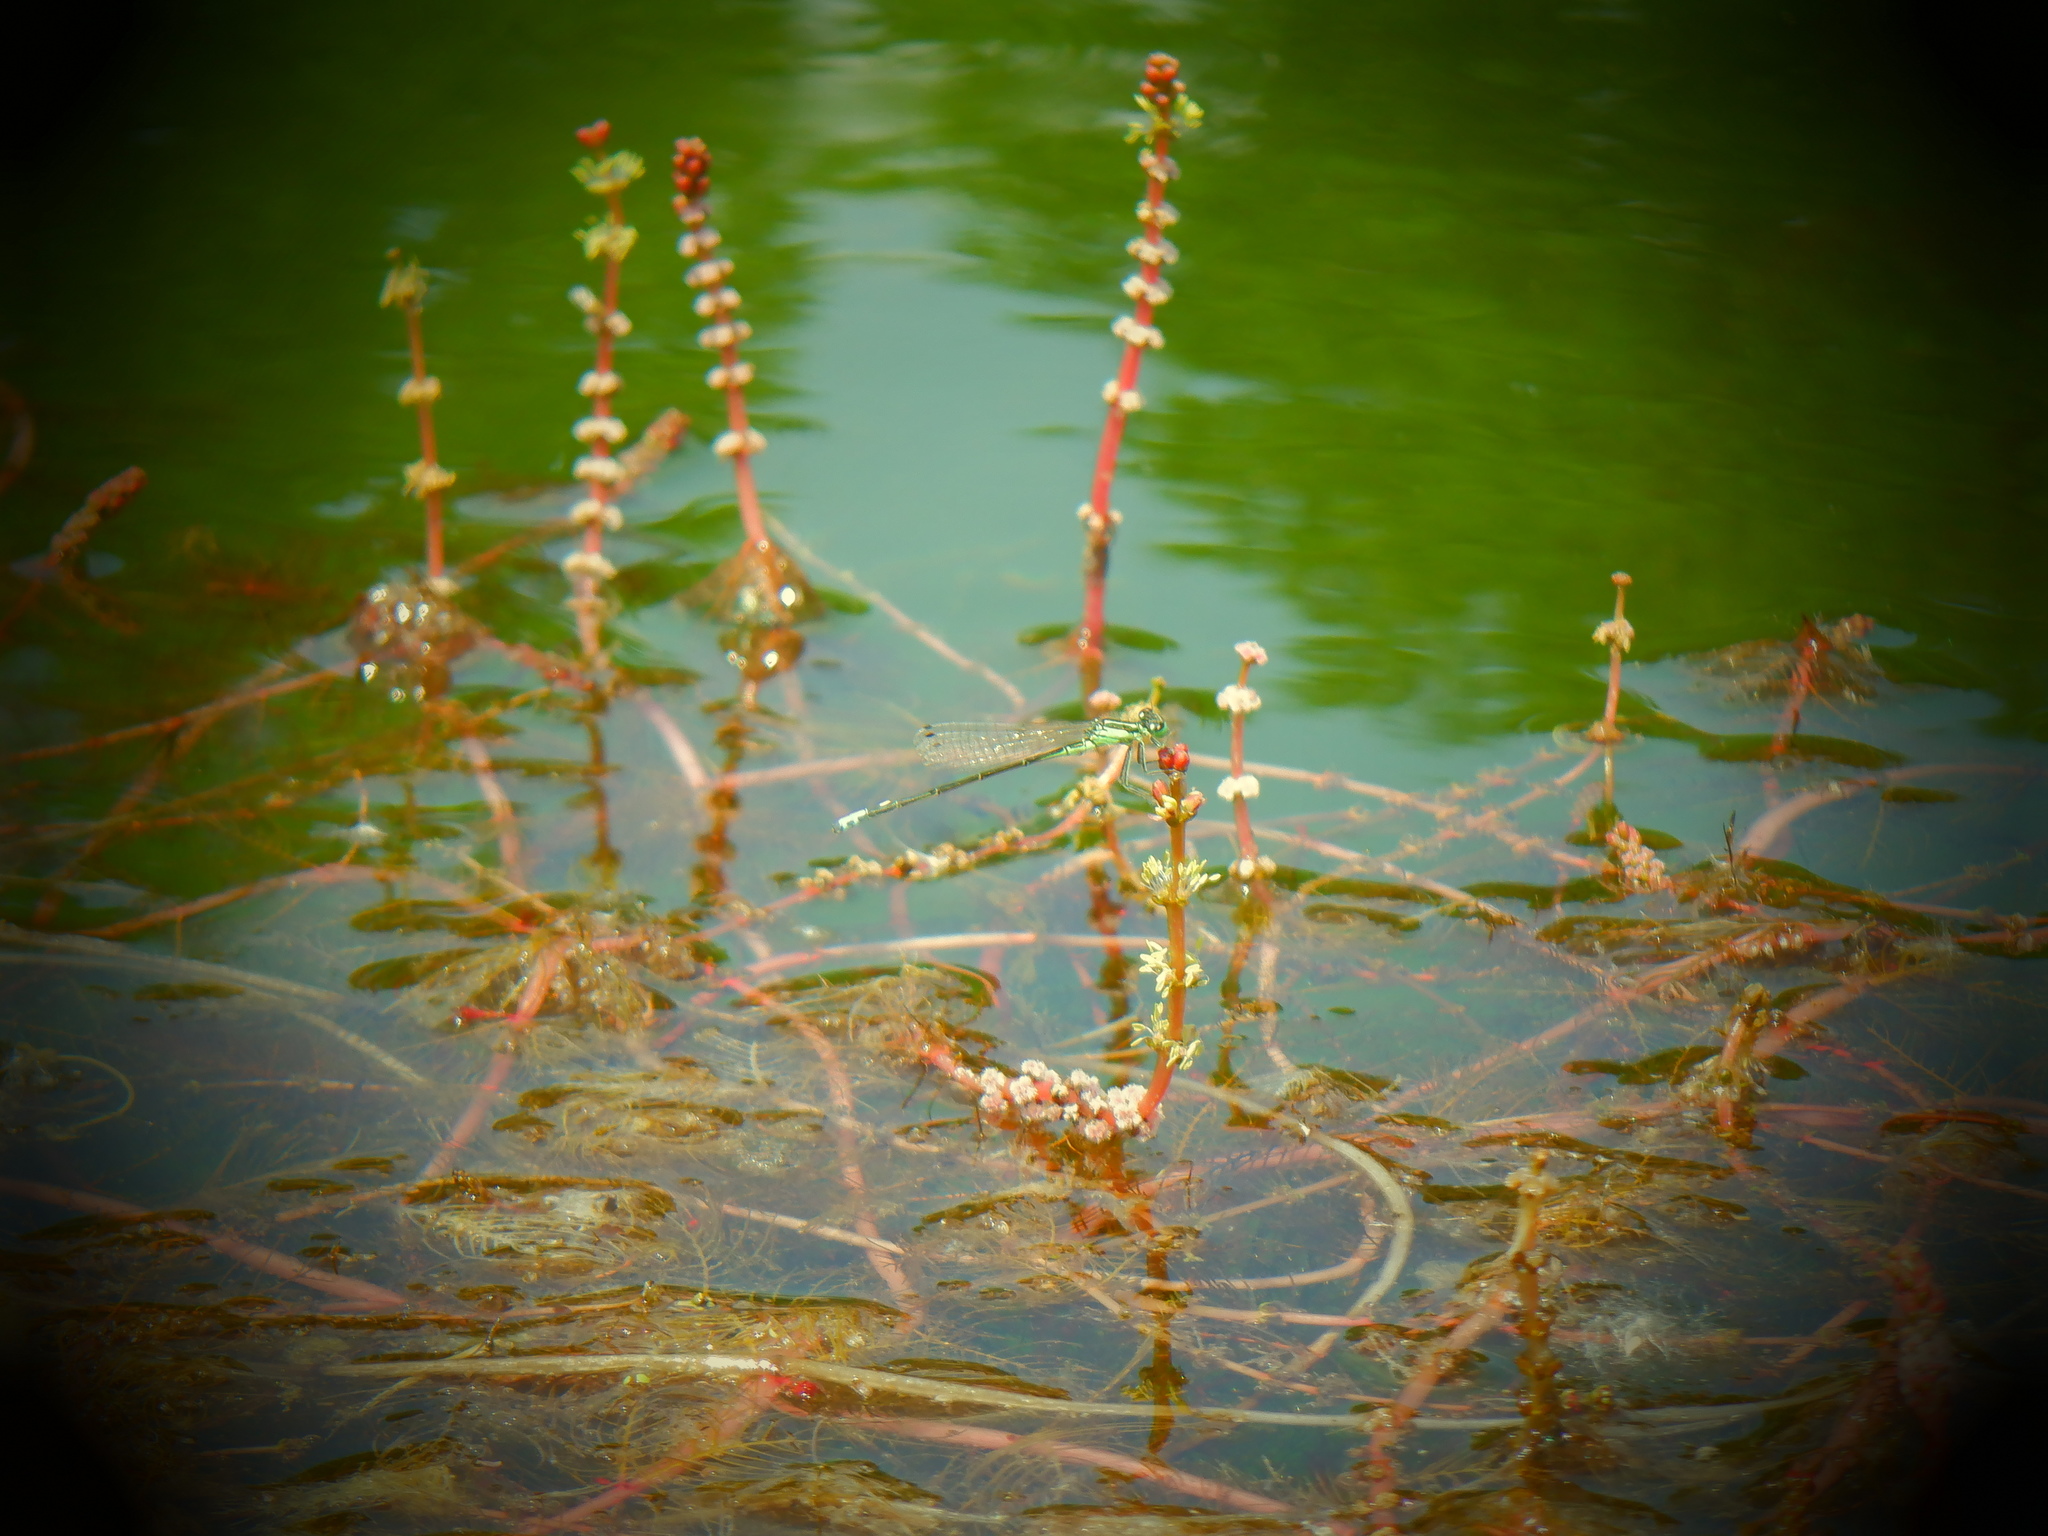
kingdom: Animalia
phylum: Arthropoda
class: Insecta
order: Odonata
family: Coenagrionidae
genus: Ischnura
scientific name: Ischnura verticalis
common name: Eastern forktail
